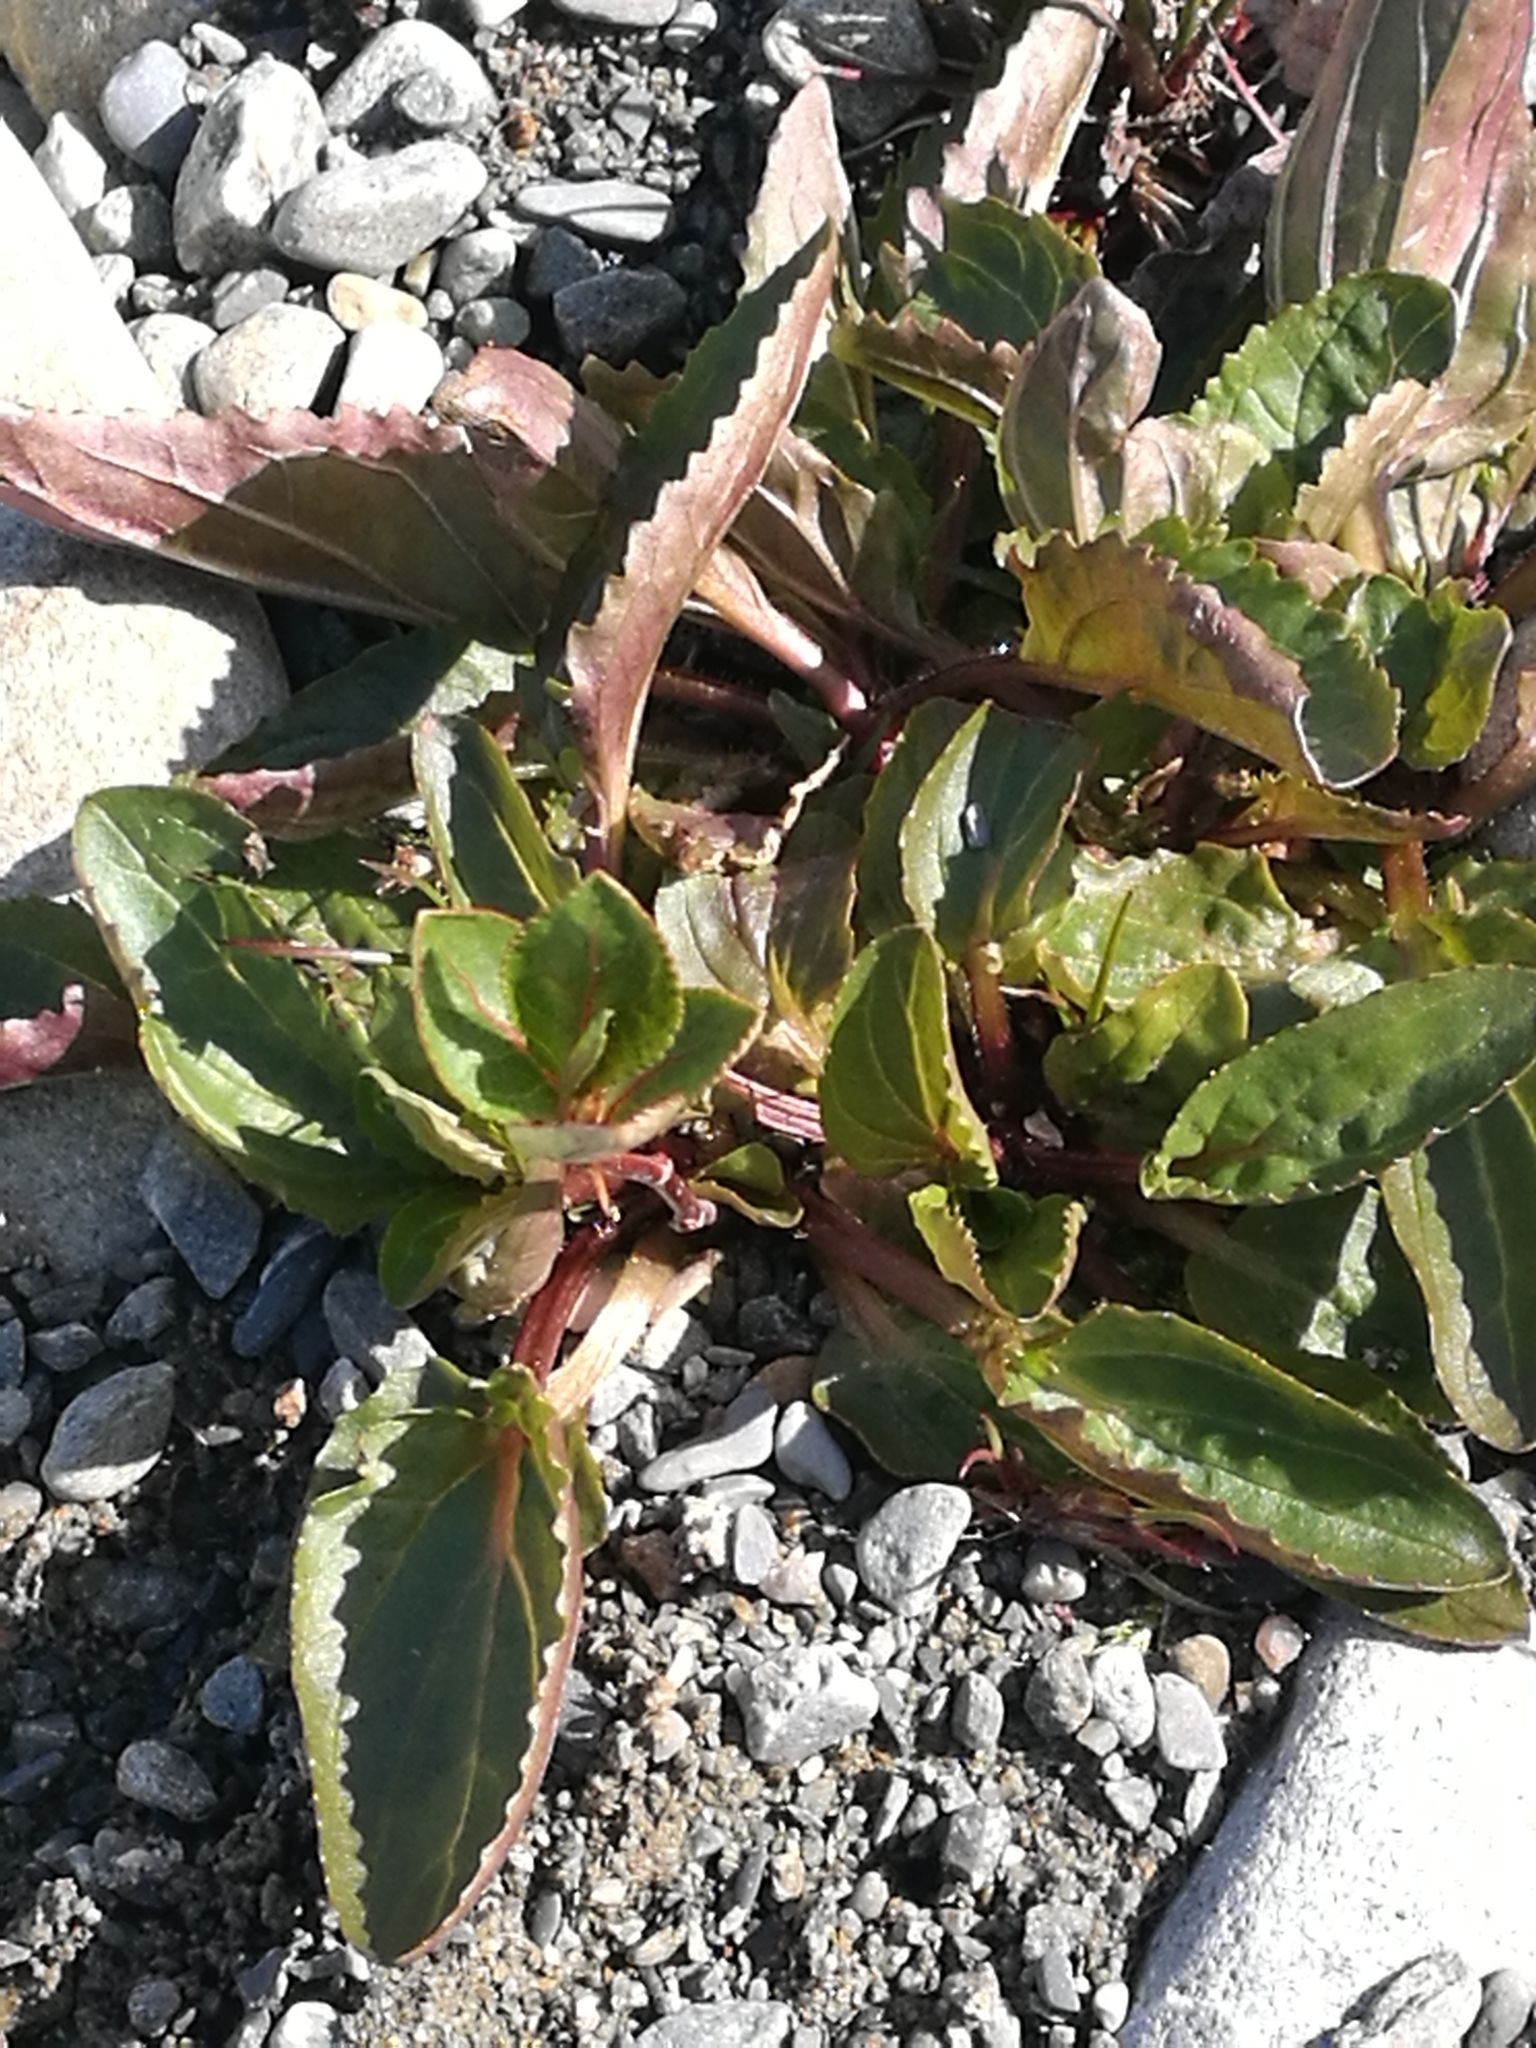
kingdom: Plantae
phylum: Tracheophyta
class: Magnoliopsida
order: Lamiales
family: Phrymaceae
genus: Erythranthe
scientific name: Erythranthe guttata
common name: Monkeyflower
